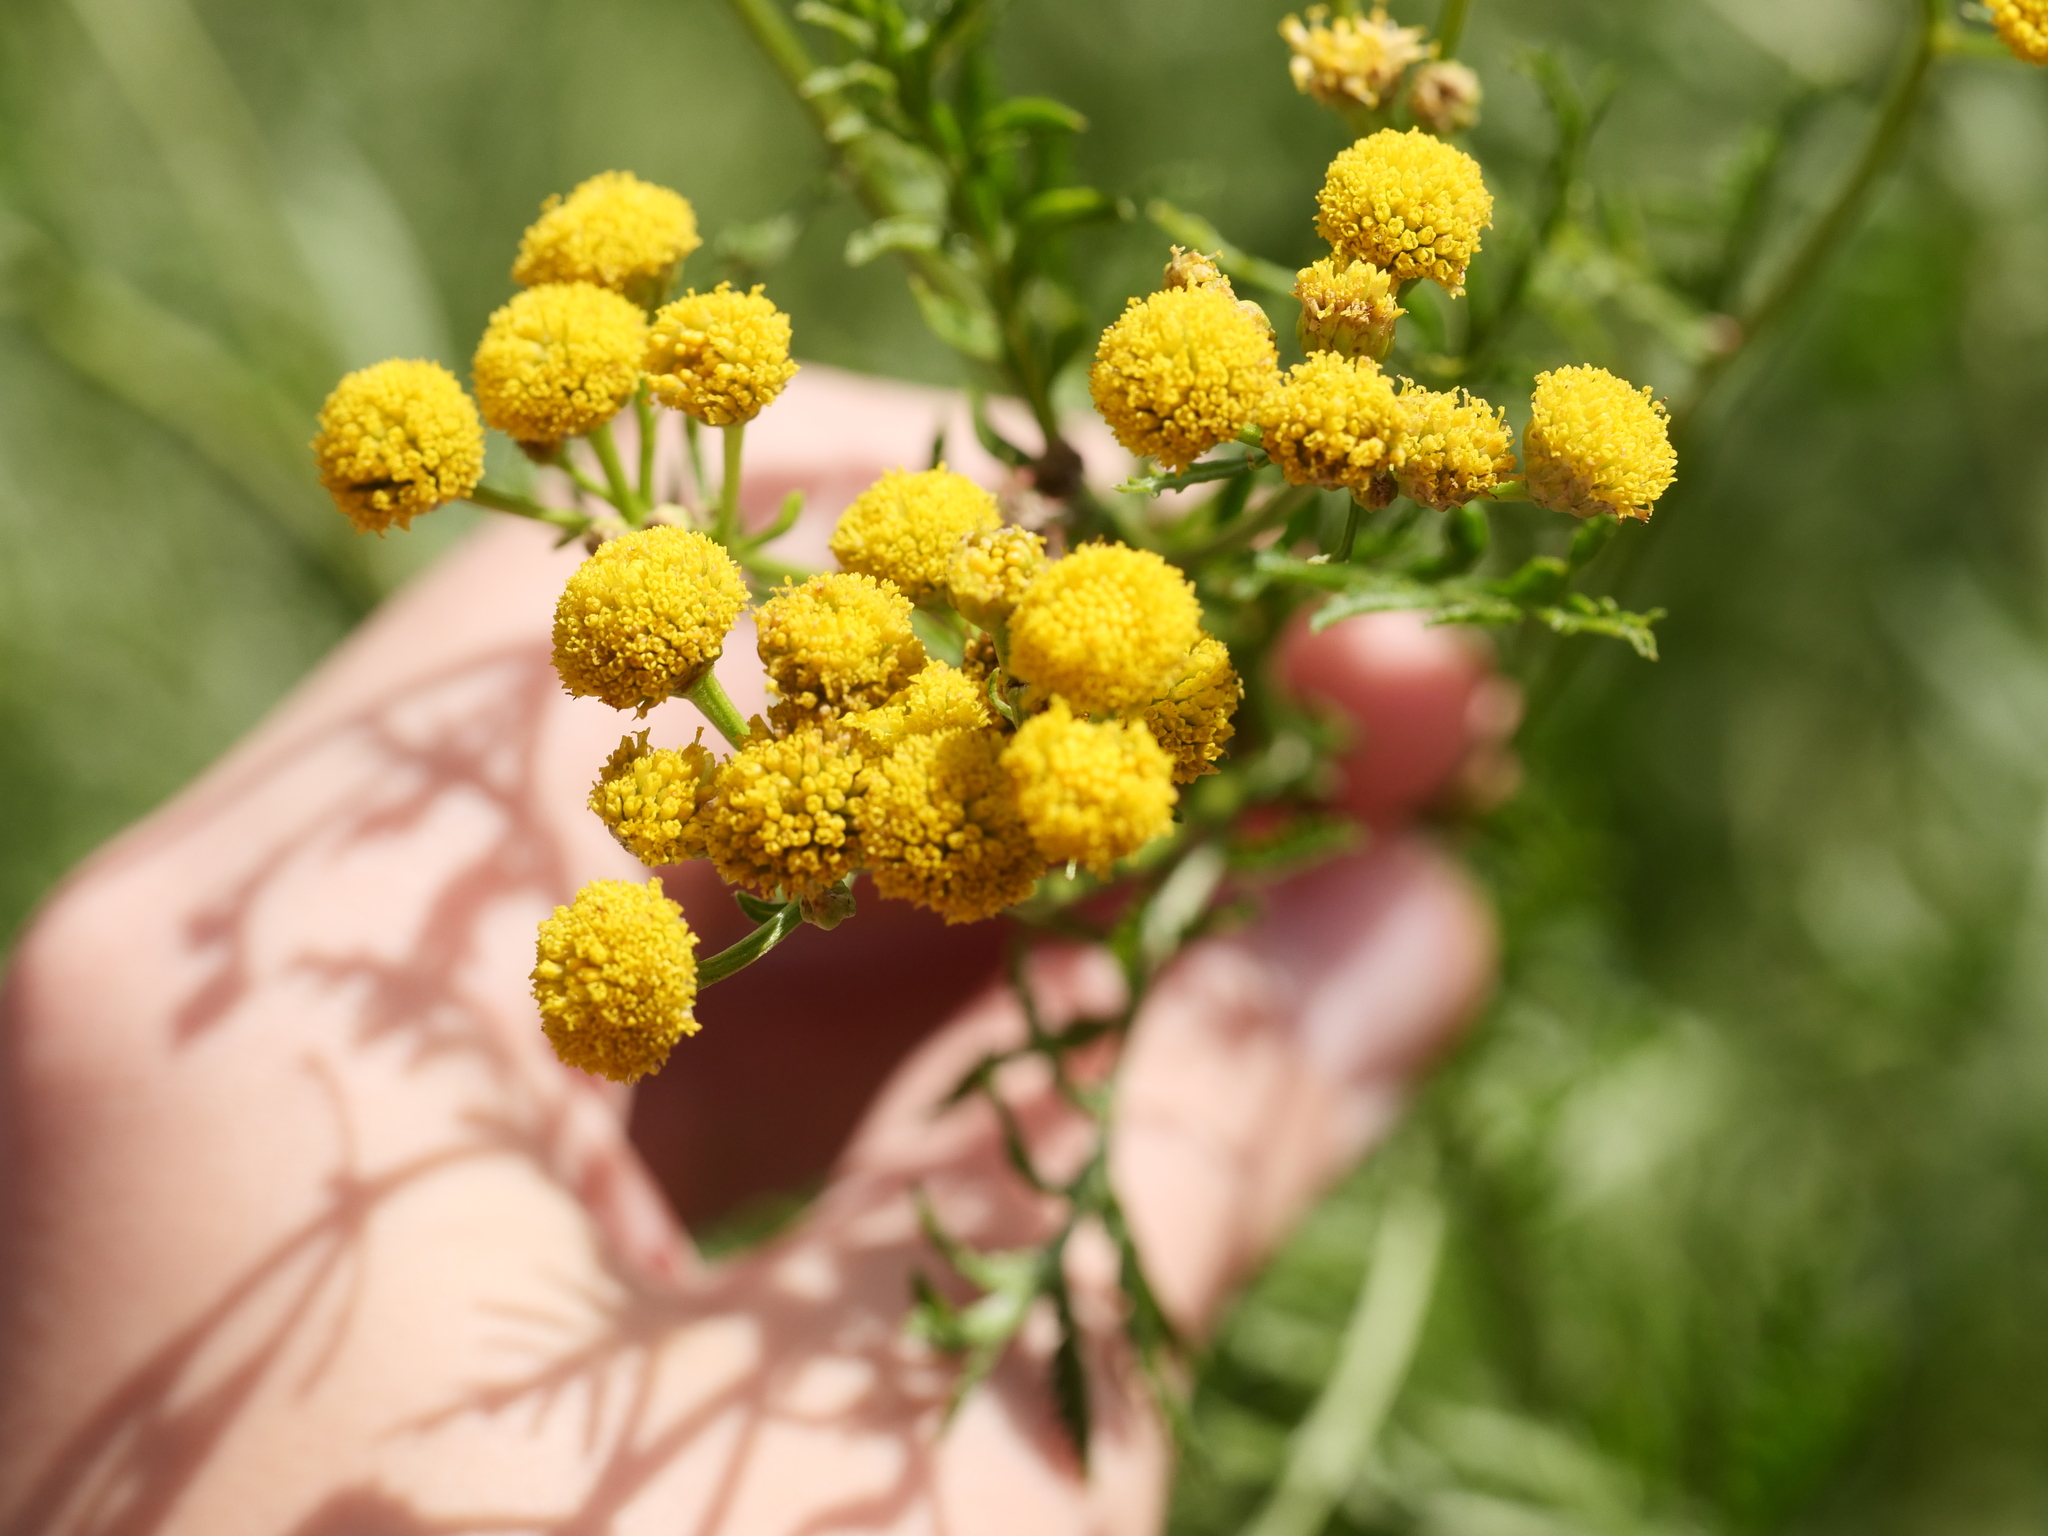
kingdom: Plantae
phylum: Tracheophyta
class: Magnoliopsida
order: Asterales
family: Asteraceae
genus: Tanacetum
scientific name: Tanacetum vulgare
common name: Common tansy
